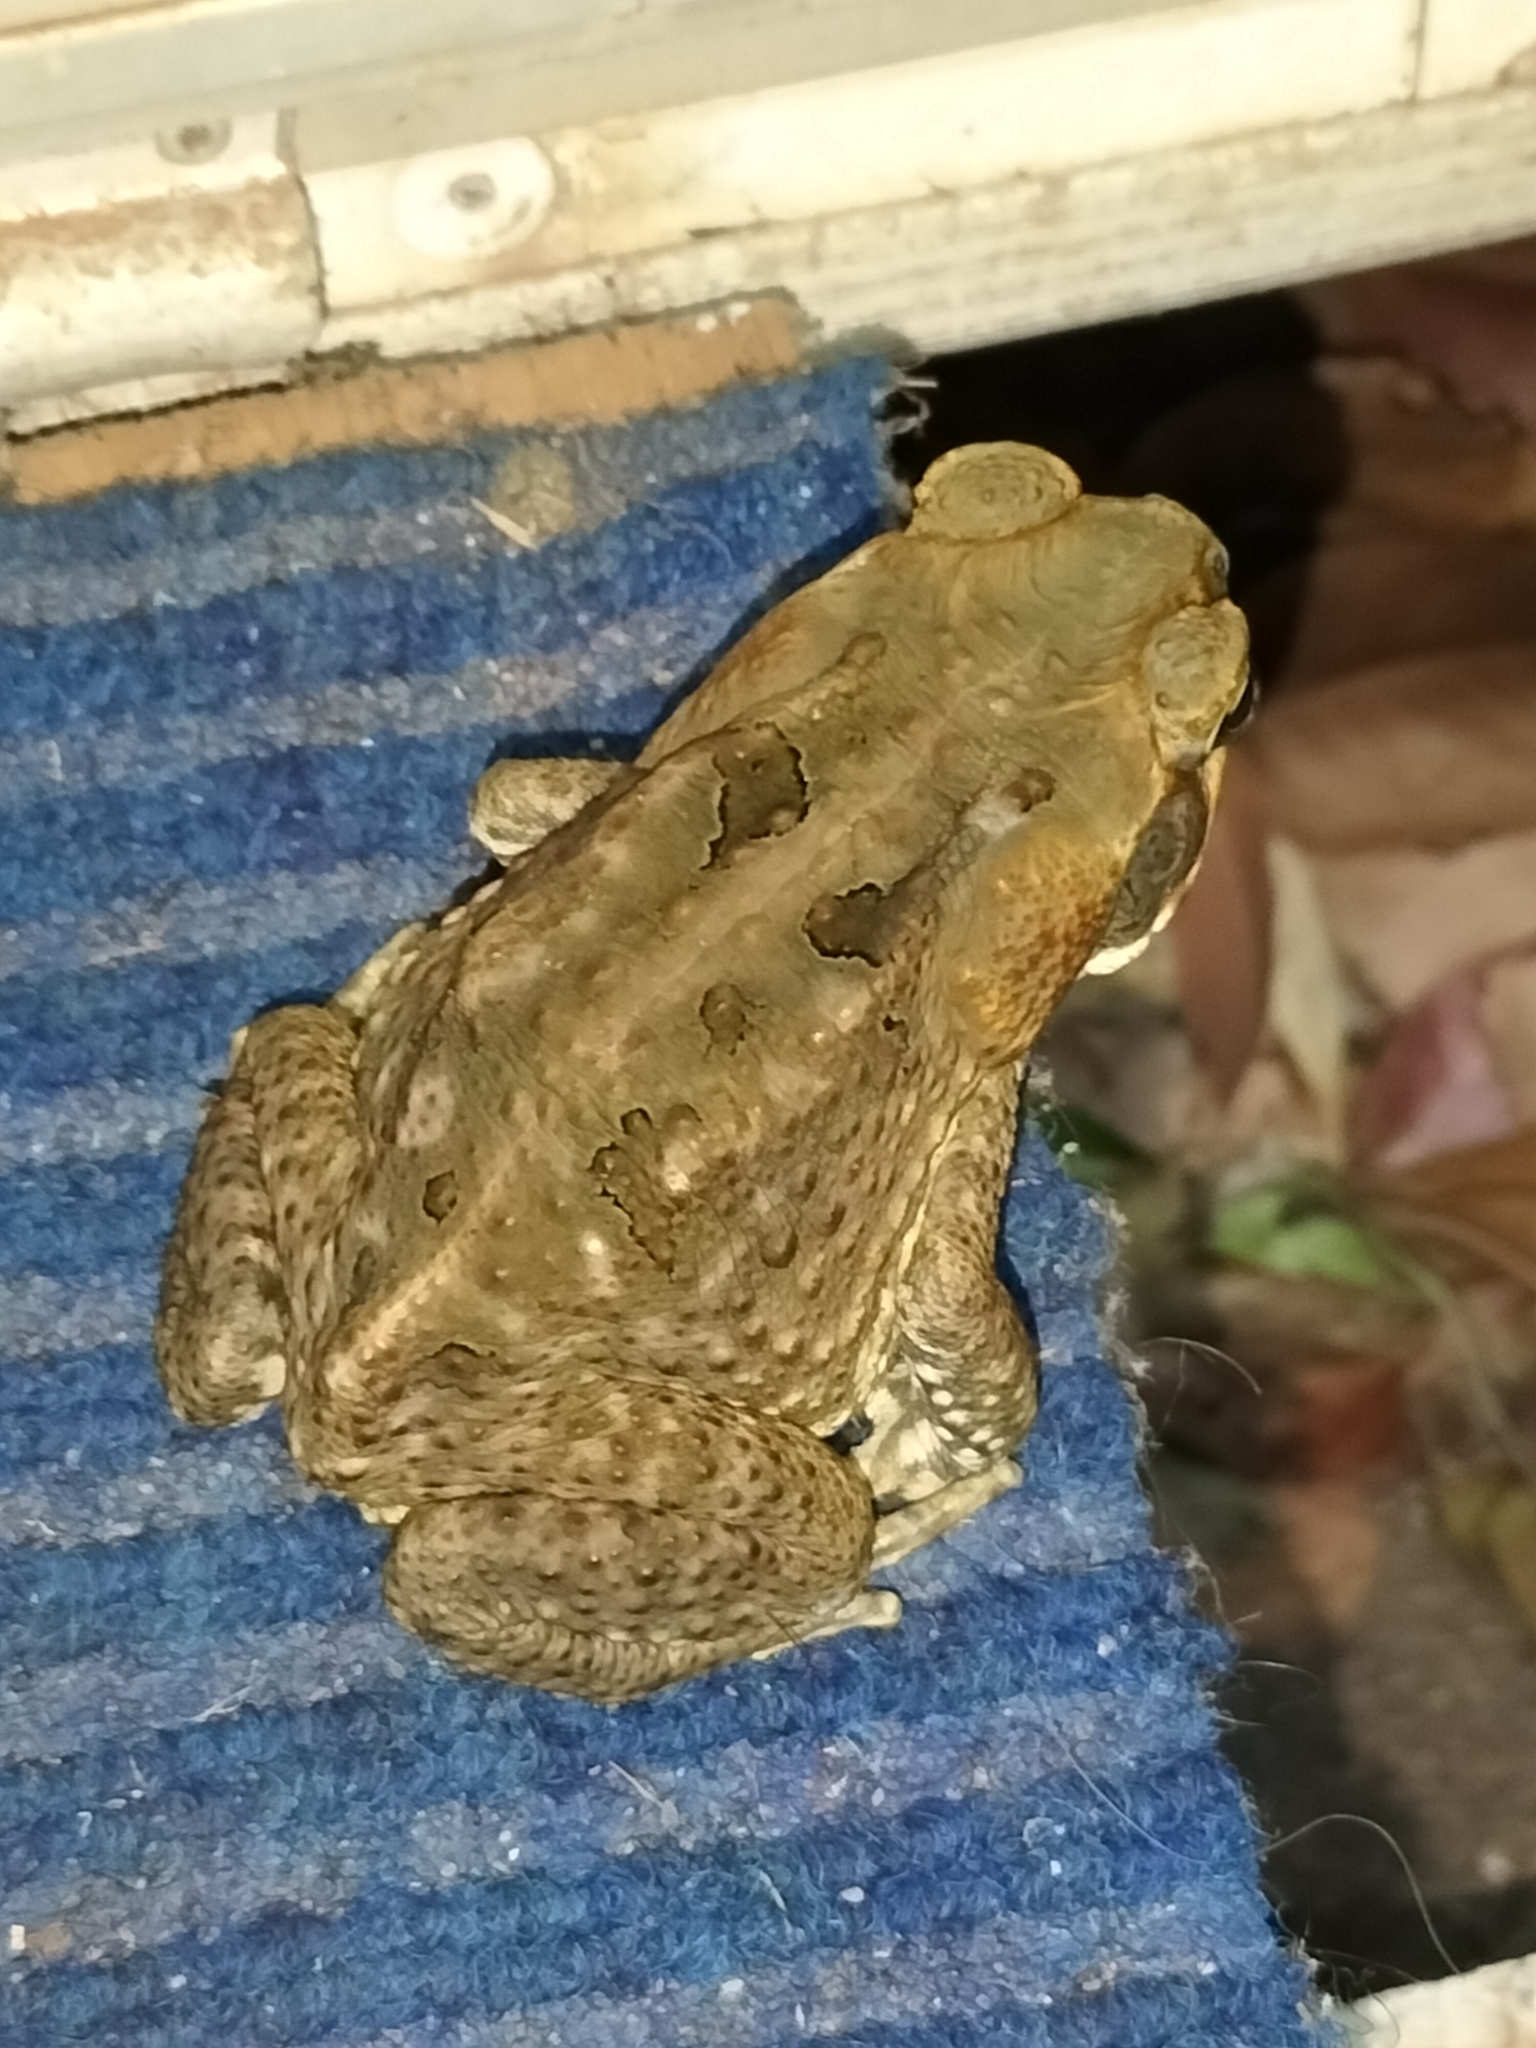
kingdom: Animalia
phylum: Chordata
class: Amphibia
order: Anura
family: Bufonidae
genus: Rhinella
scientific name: Rhinella marina
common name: Cane toad
